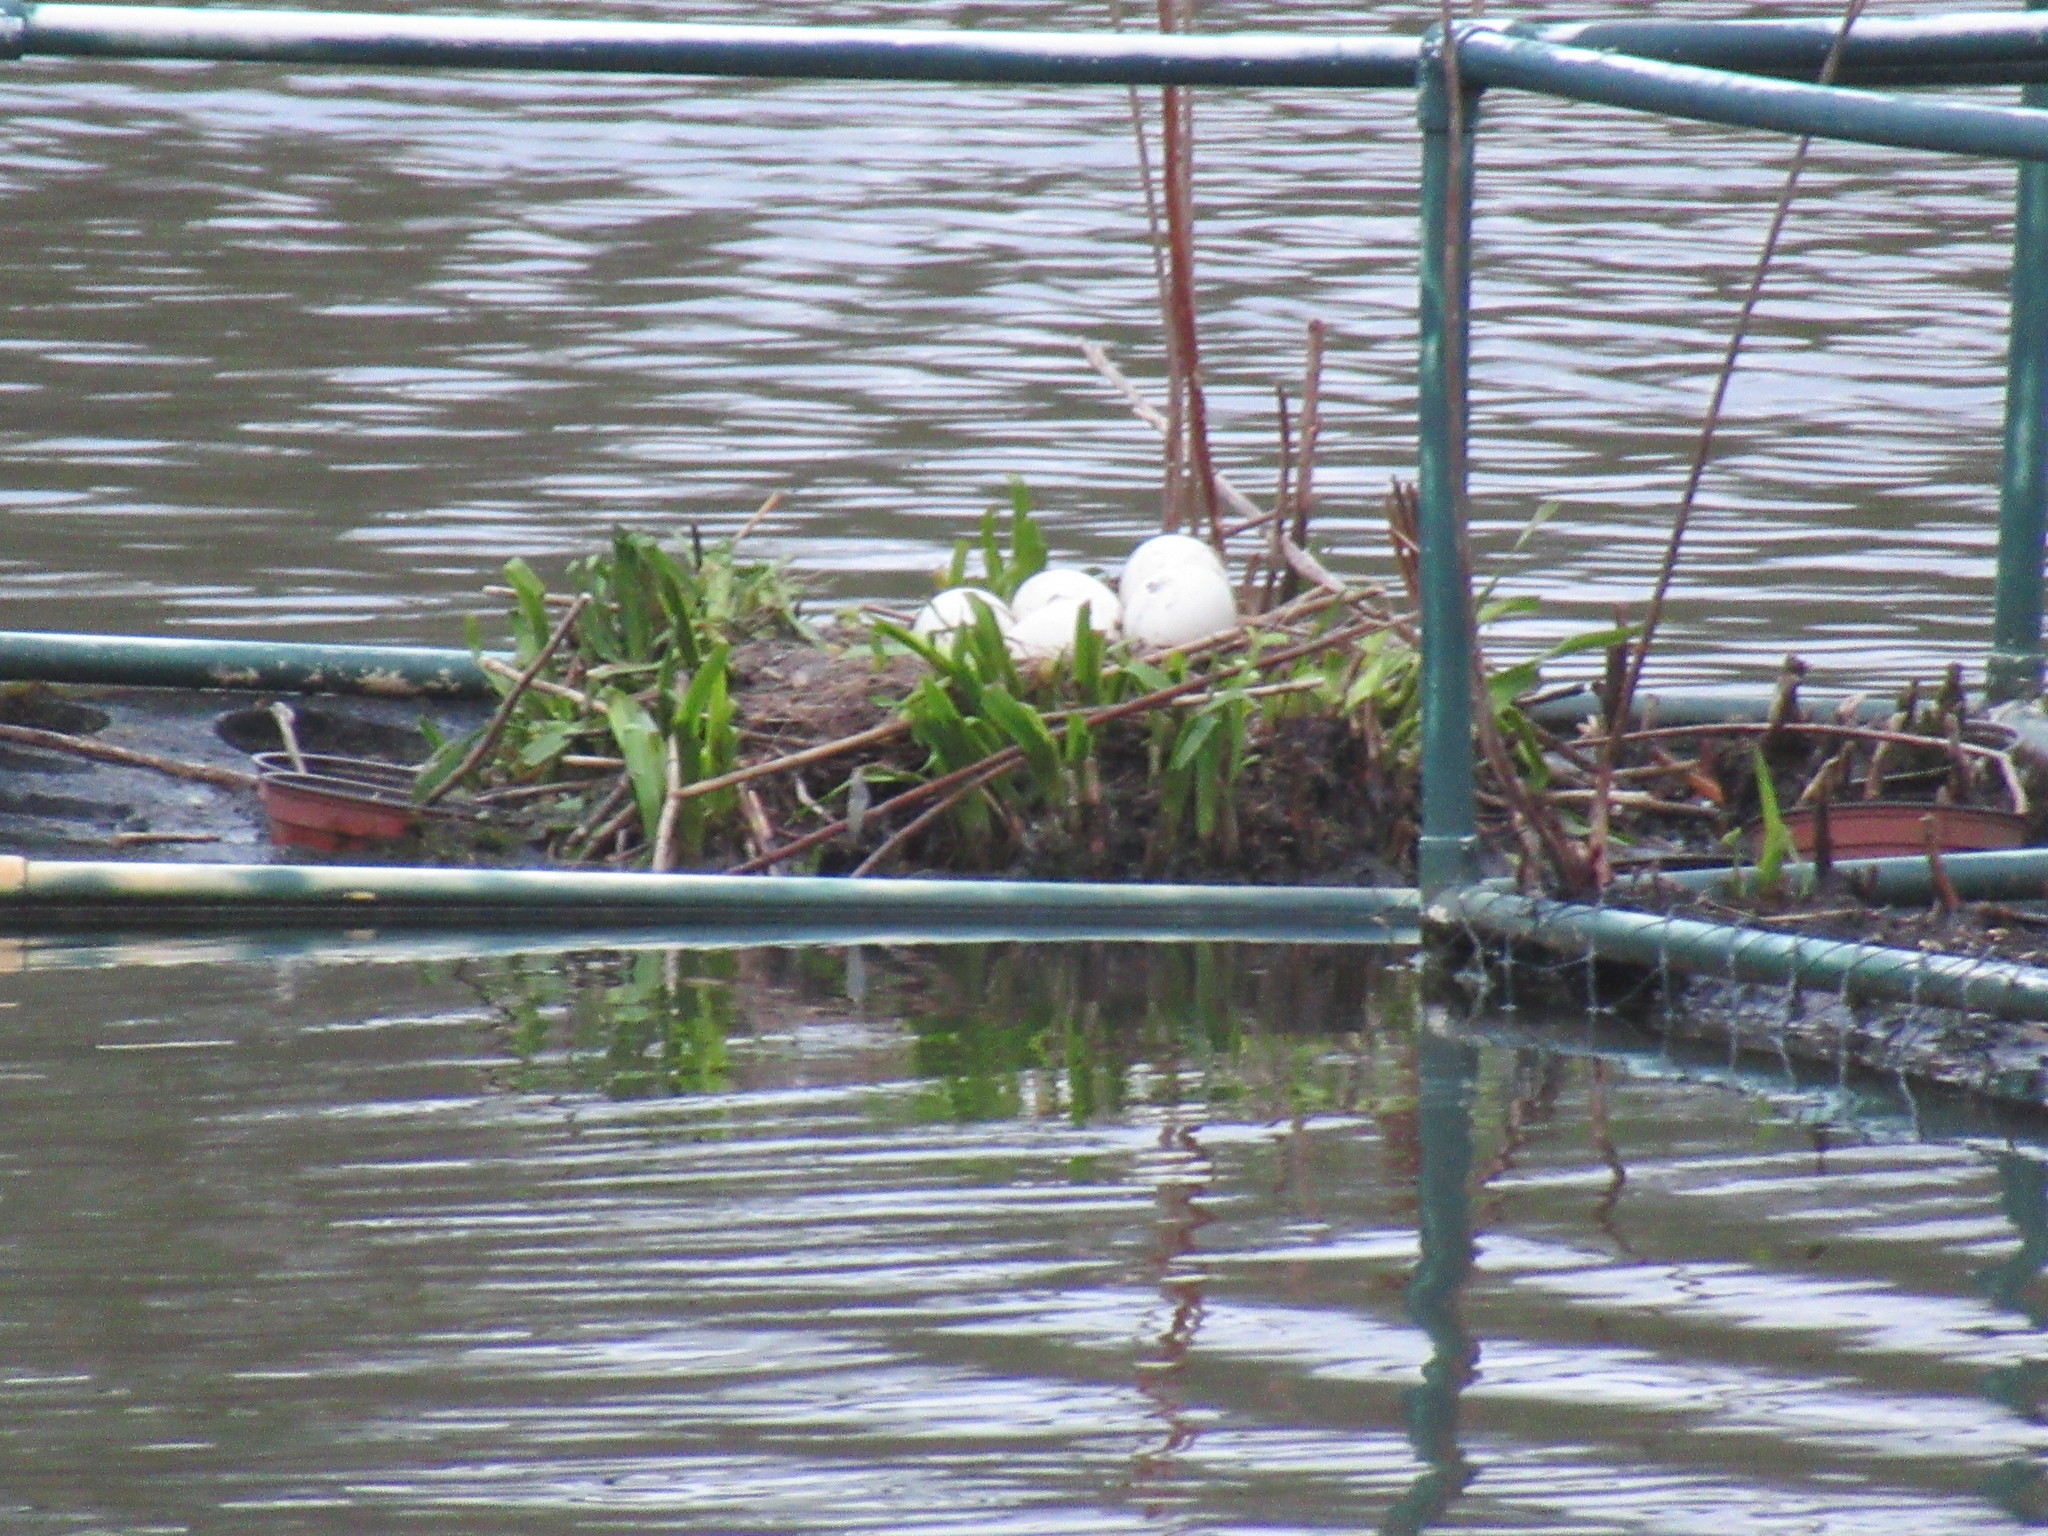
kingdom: Animalia
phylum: Chordata
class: Aves
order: Anseriformes
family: Anatidae
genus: Branta
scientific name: Branta canadensis
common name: Canada goose
